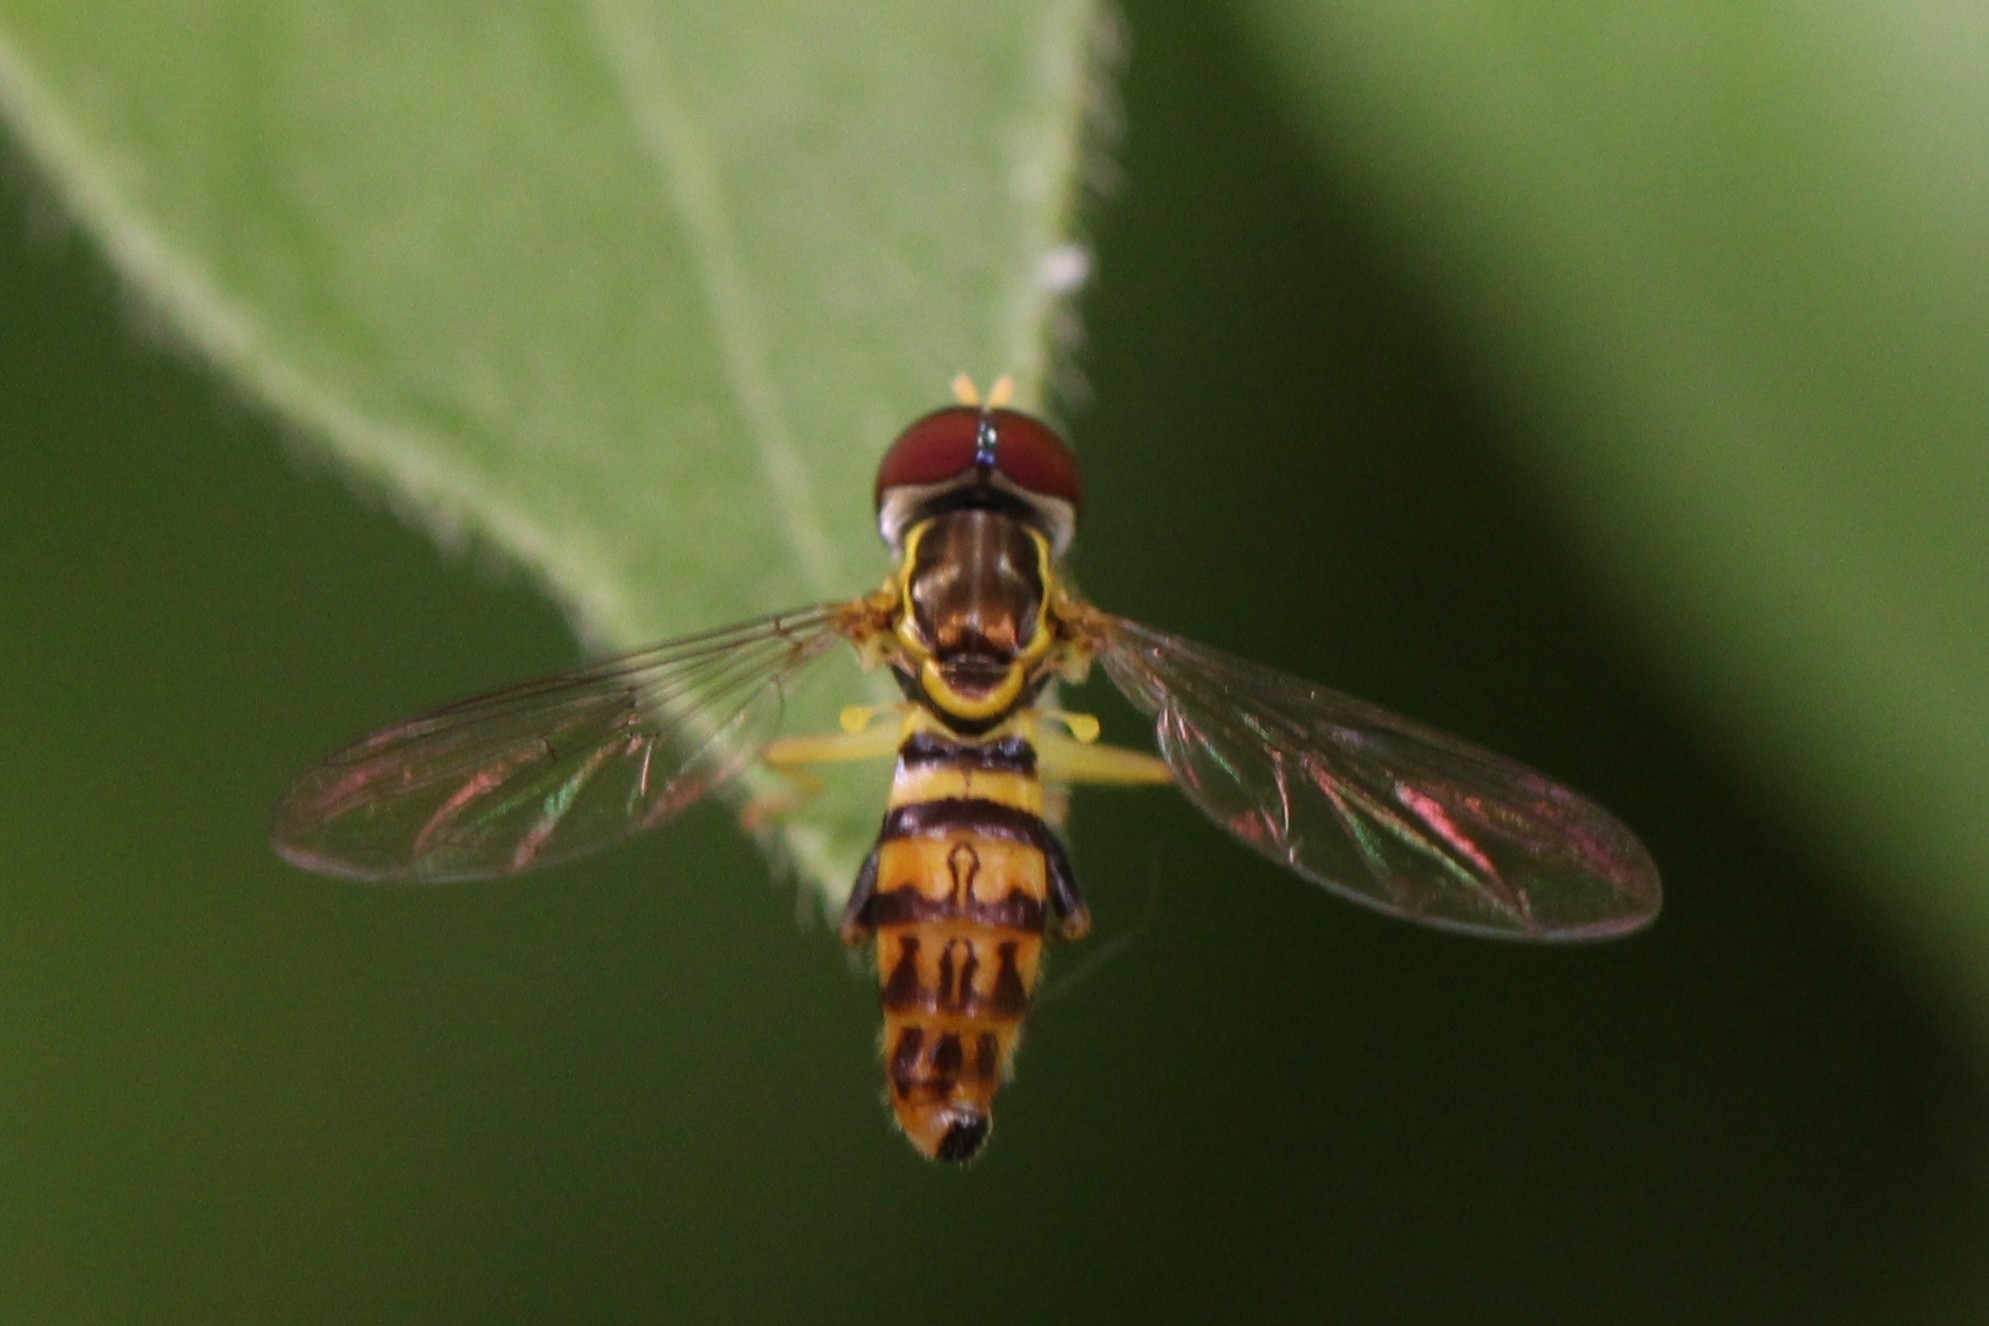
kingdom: Animalia
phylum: Arthropoda
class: Insecta
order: Diptera
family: Syrphidae
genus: Toxomerus
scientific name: Toxomerus geminatus
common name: Eastern calligrapher
